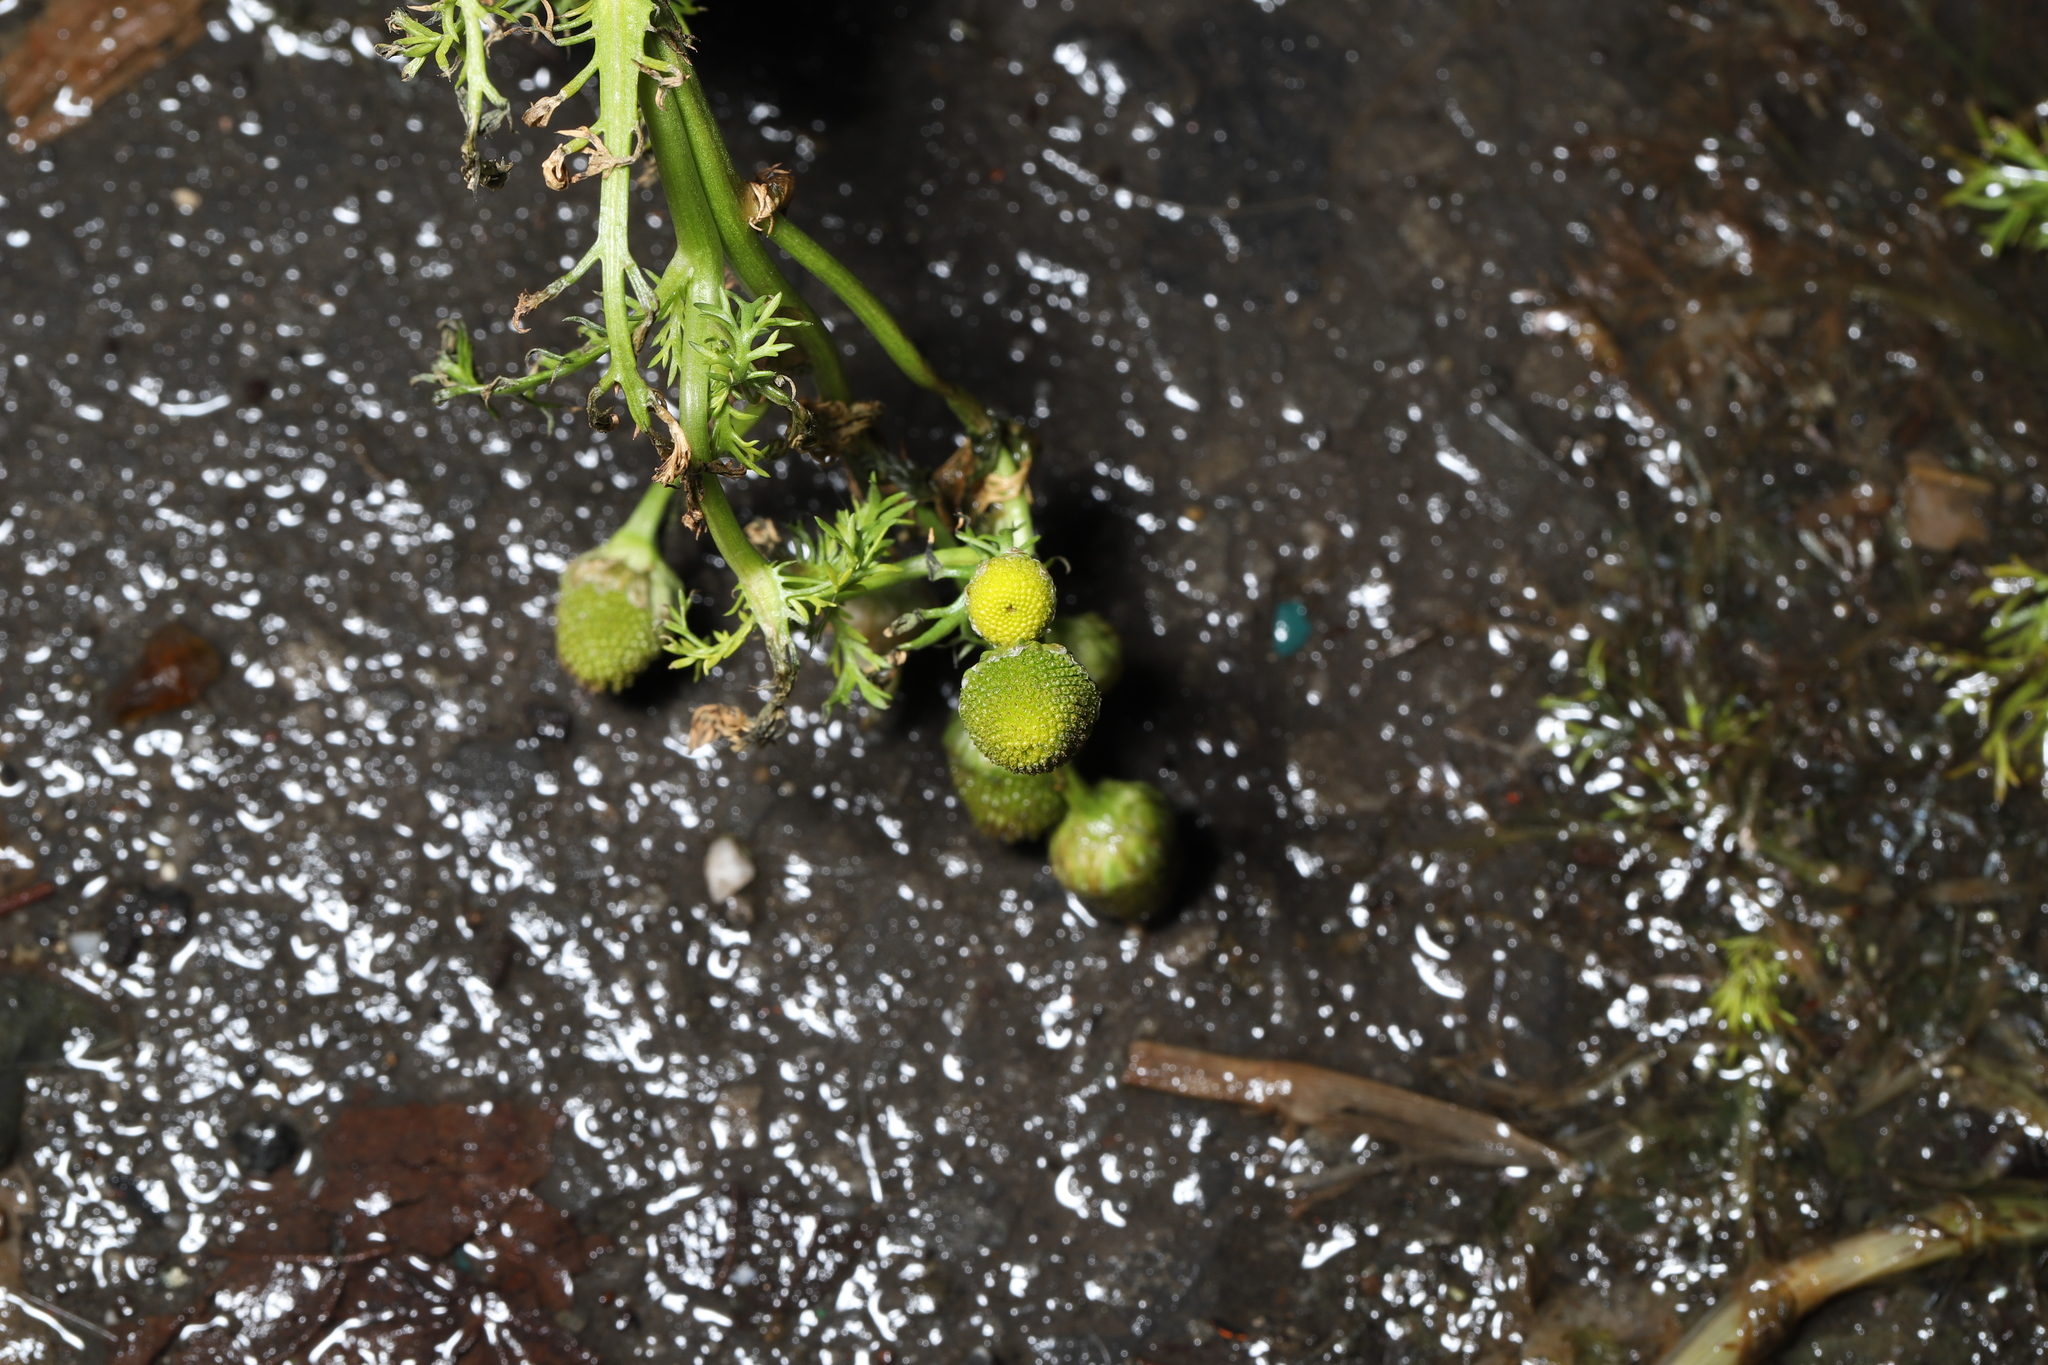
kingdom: Plantae
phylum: Tracheophyta
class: Magnoliopsida
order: Asterales
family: Asteraceae
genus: Matricaria
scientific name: Matricaria discoidea
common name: Disc mayweed
